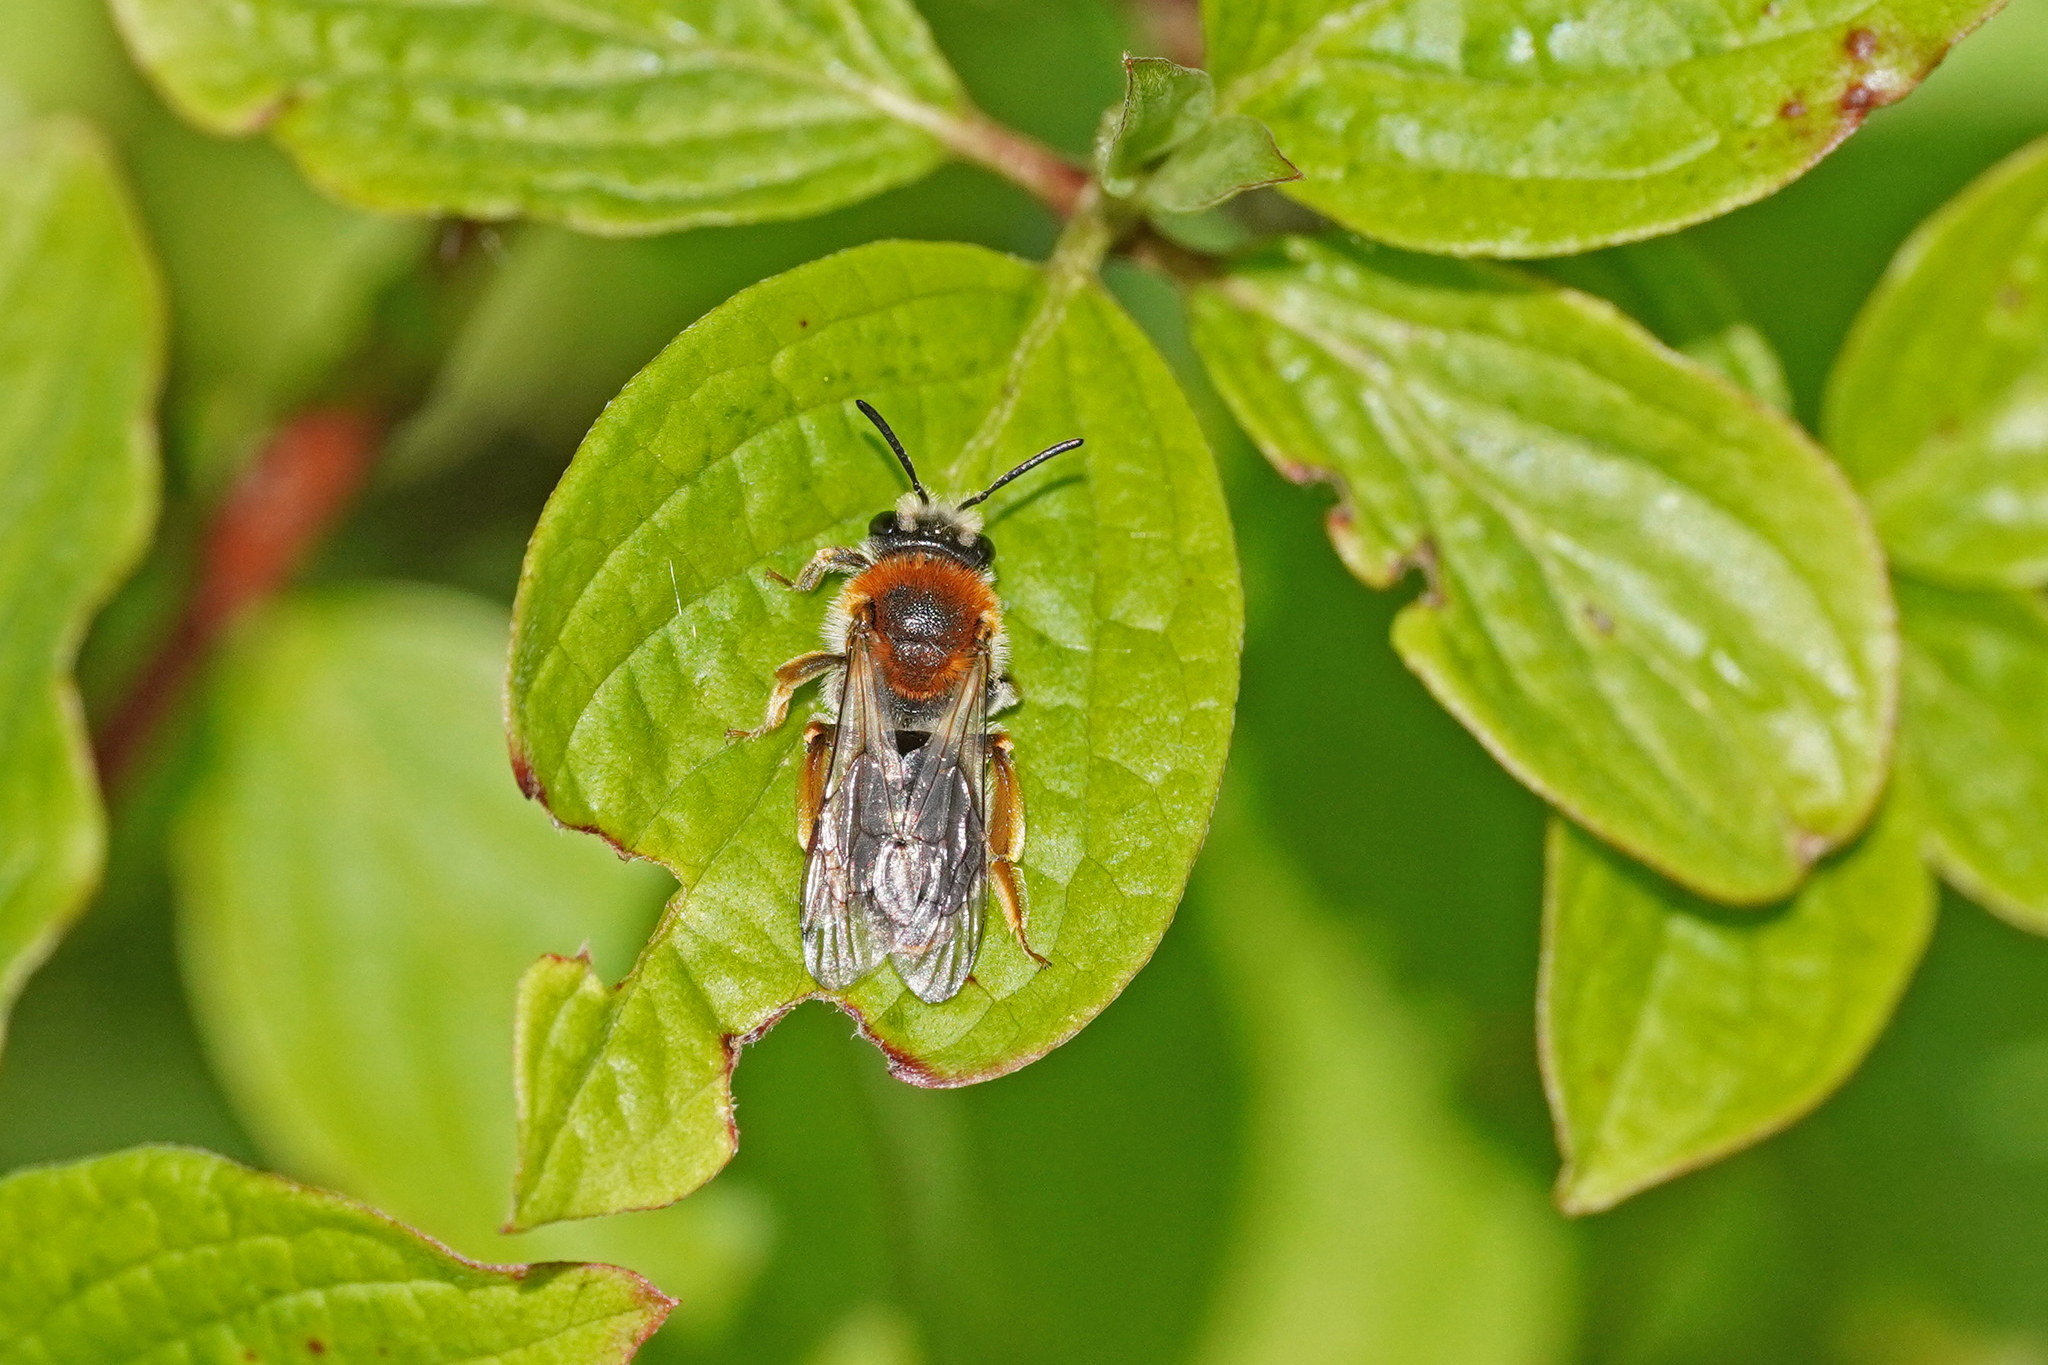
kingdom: Animalia
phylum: Arthropoda
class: Insecta
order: Hymenoptera
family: Andrenidae
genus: Andrena
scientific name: Andrena haemorrhoa
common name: Early mining bee
